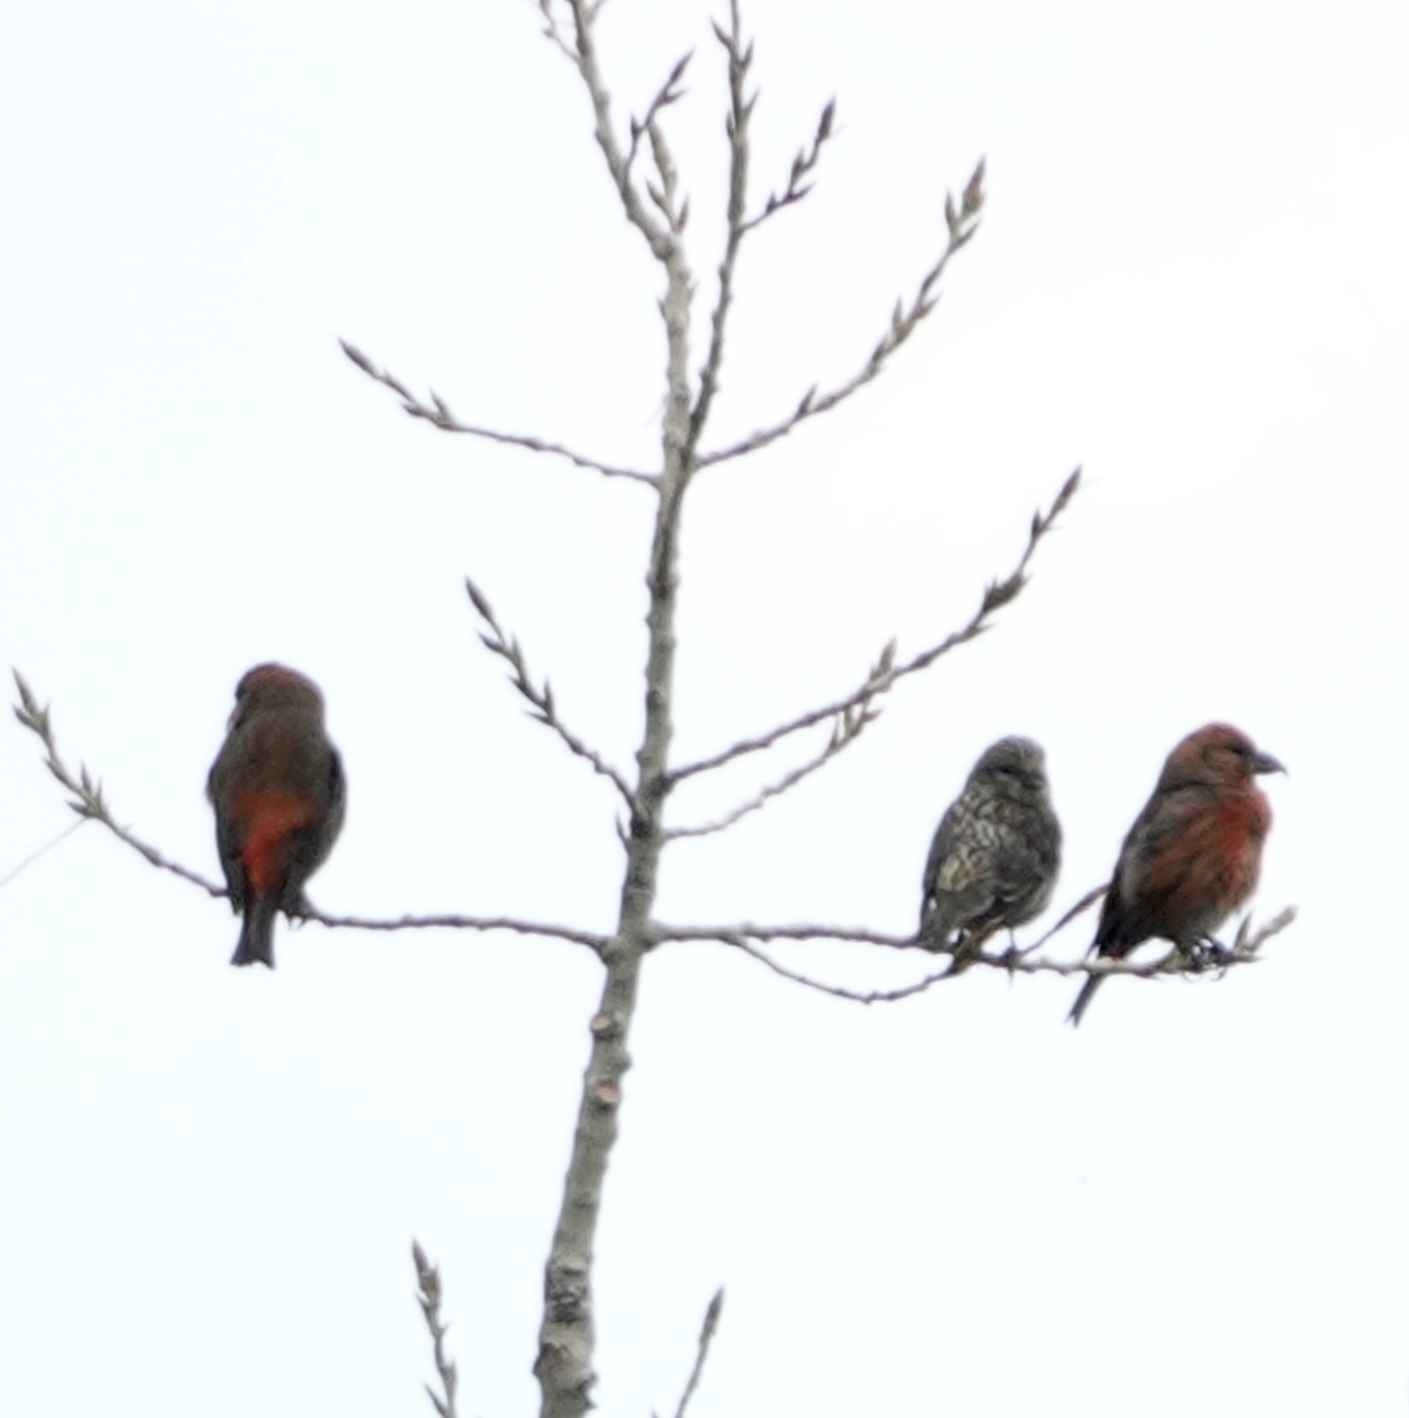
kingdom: Animalia
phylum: Chordata
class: Aves
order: Passeriformes
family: Fringillidae
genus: Loxia
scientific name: Loxia curvirostra
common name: Red crossbill
